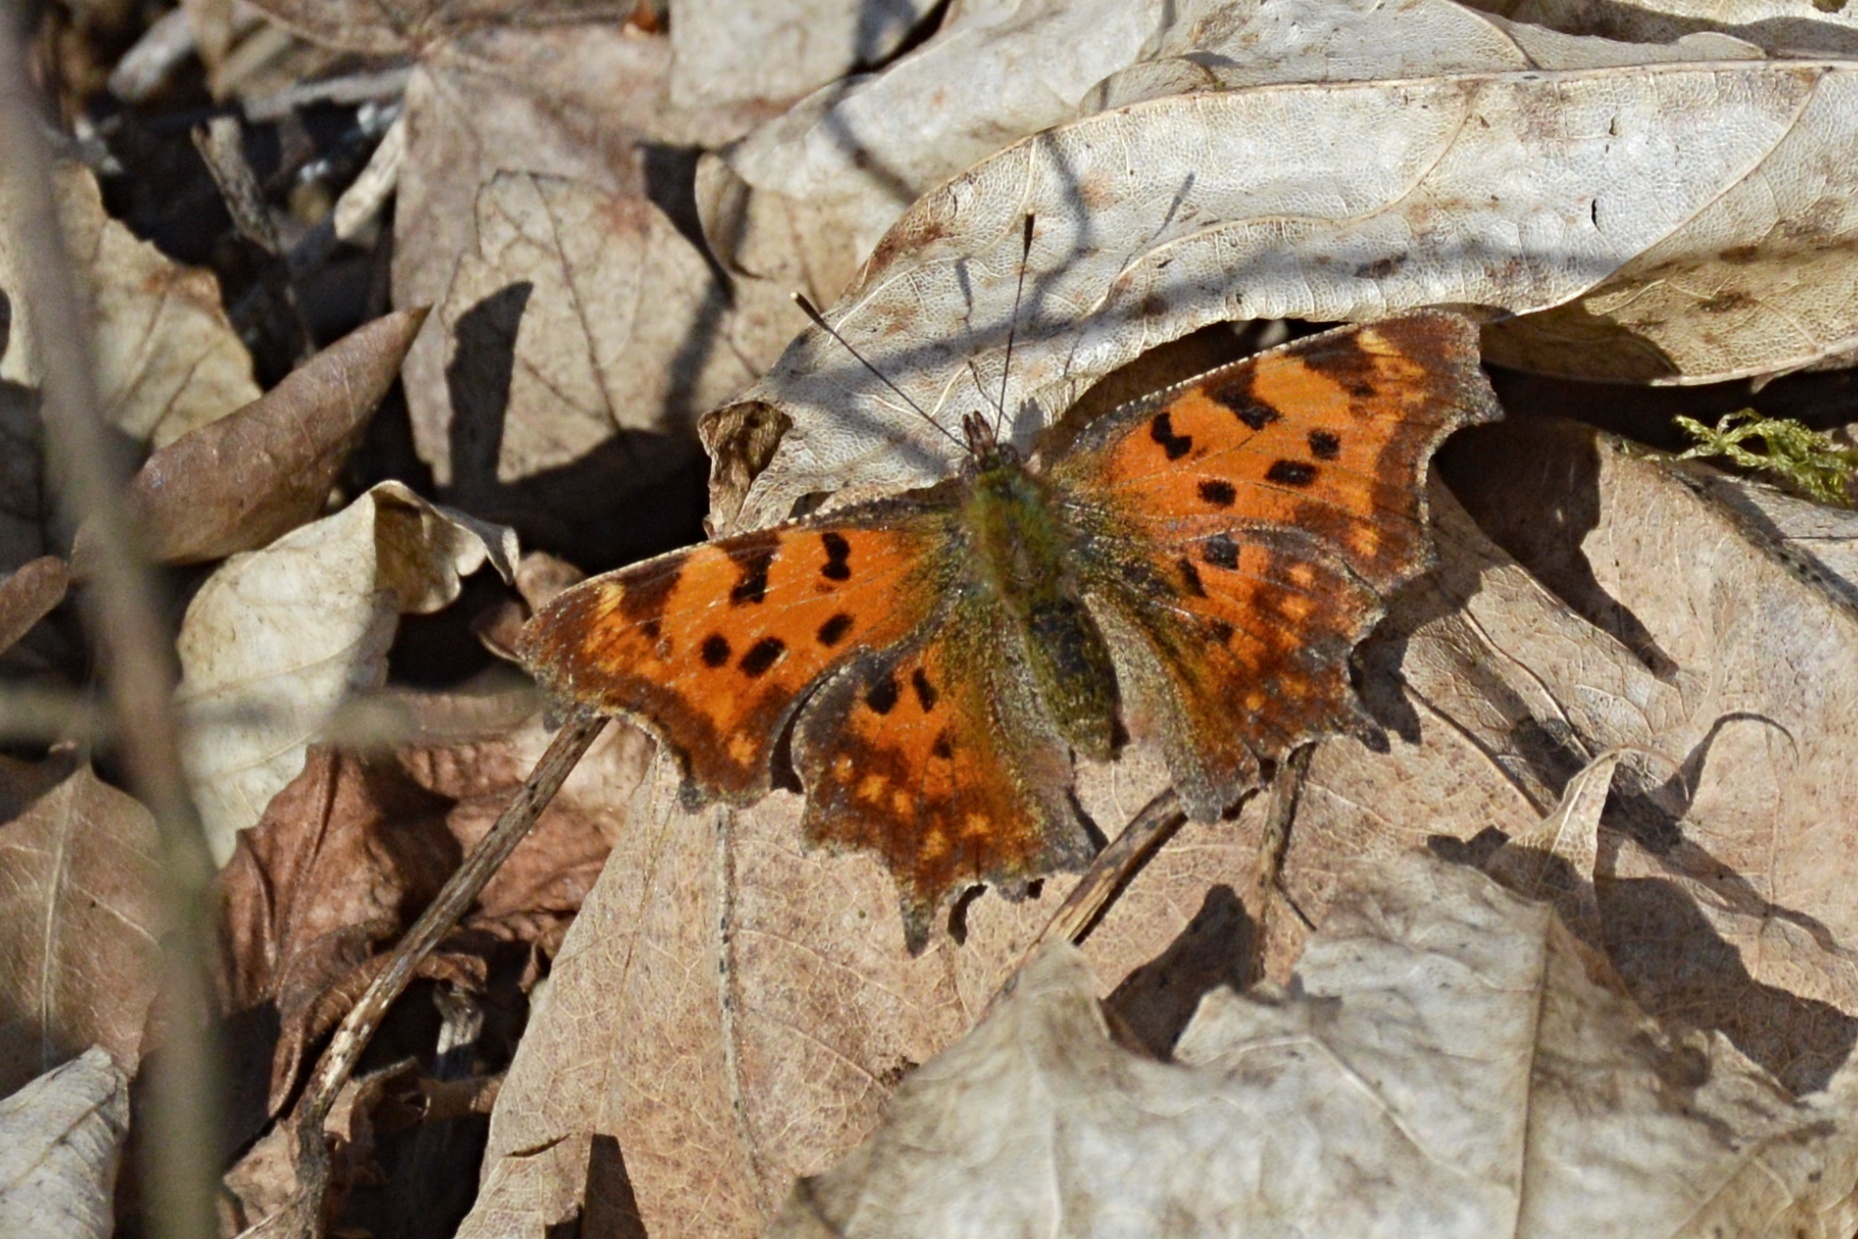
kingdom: Animalia
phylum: Arthropoda
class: Insecta
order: Lepidoptera
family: Nymphalidae
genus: Polygonia
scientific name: Polygonia c-album
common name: Comma
